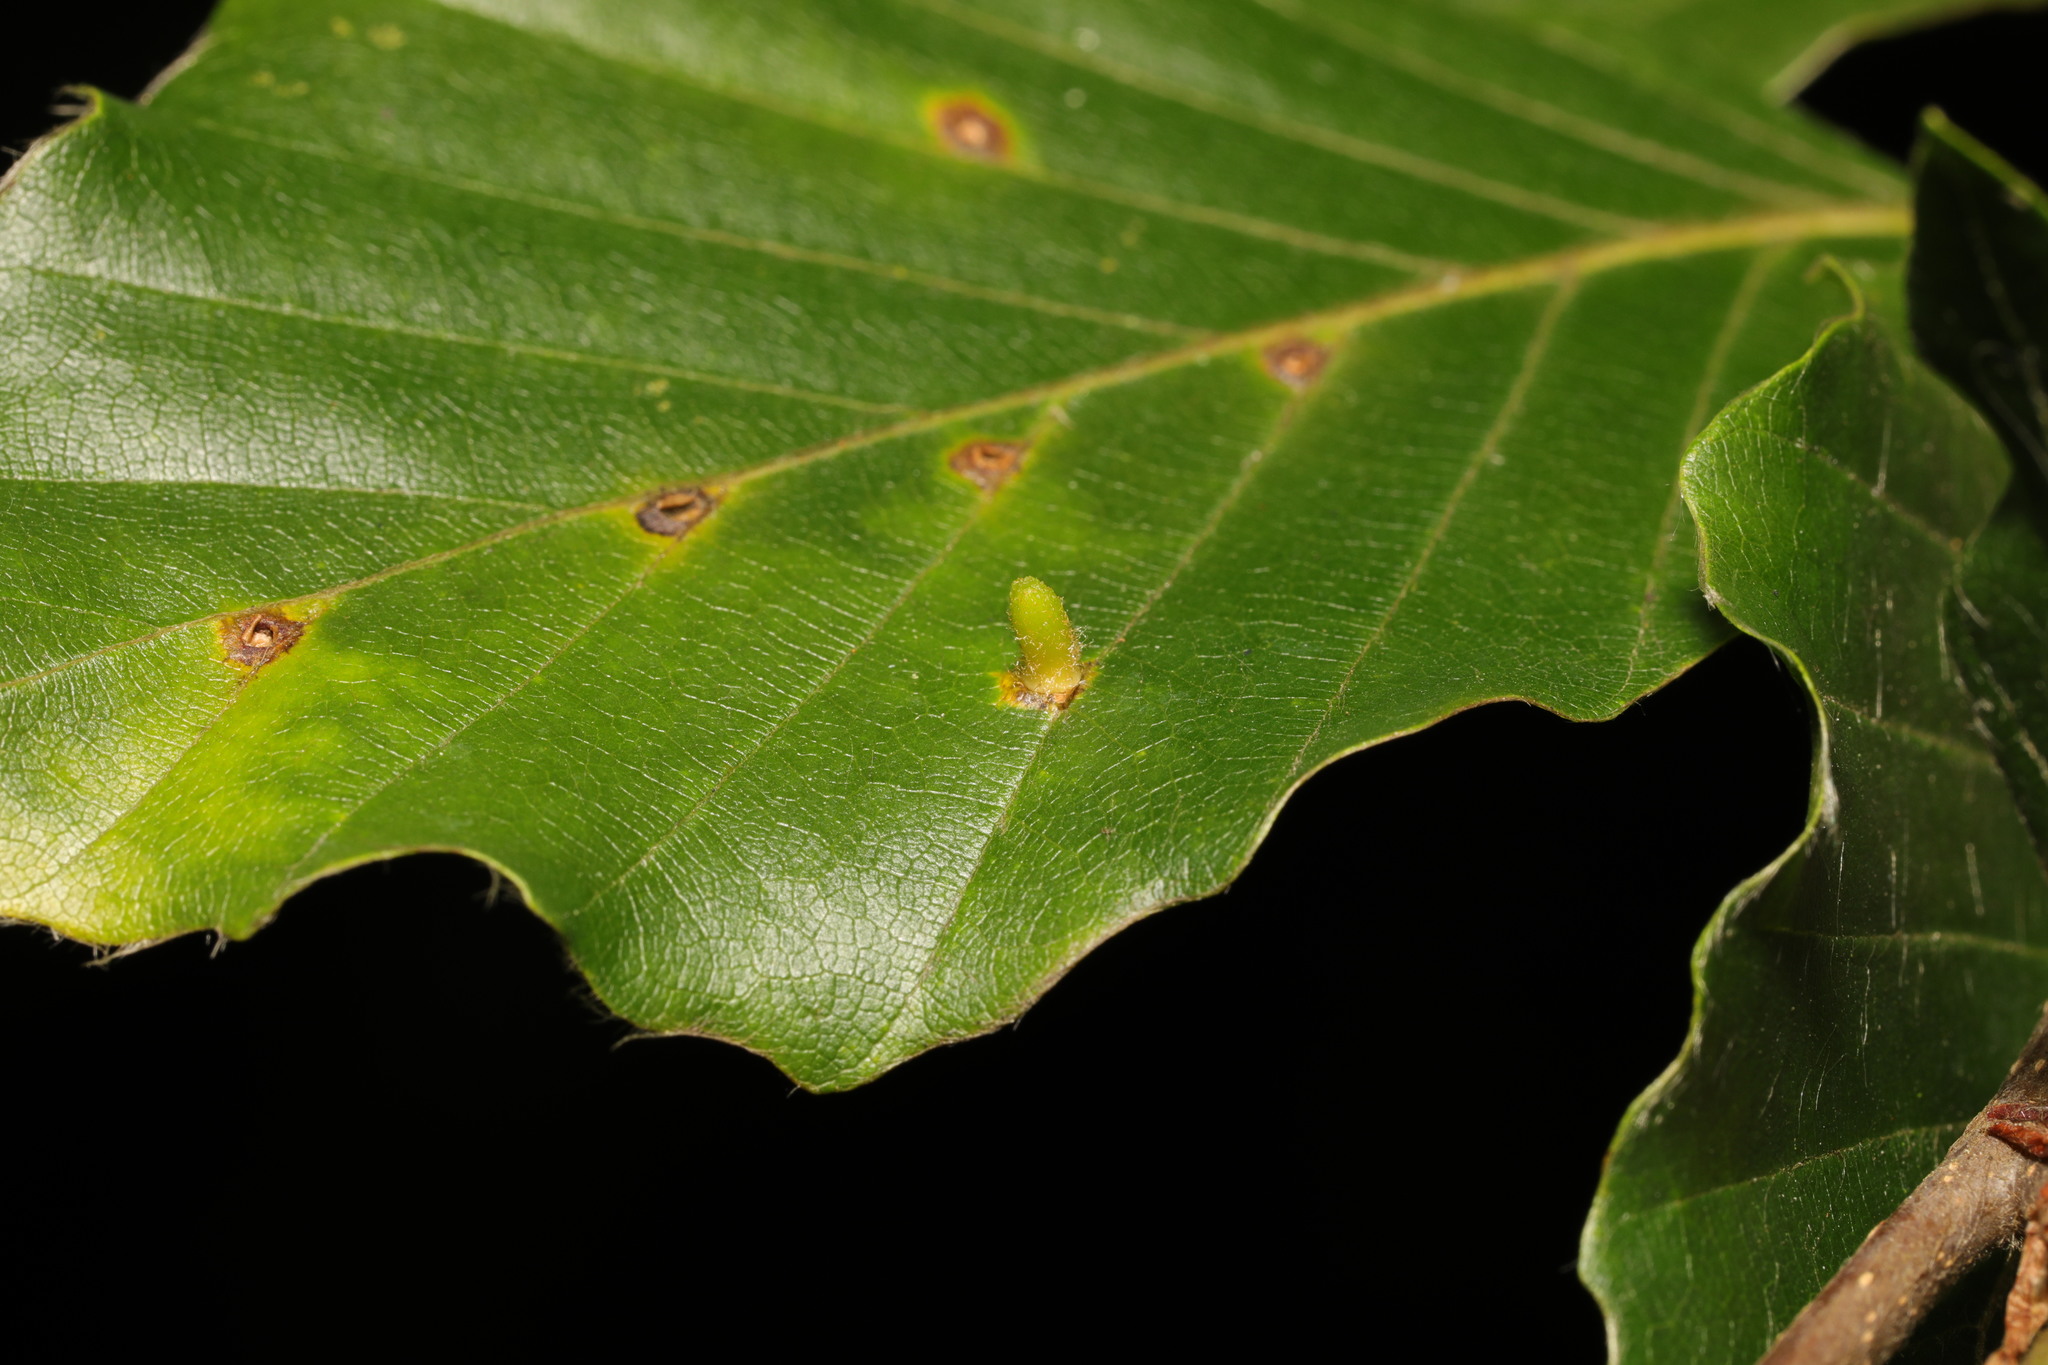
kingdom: Animalia
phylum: Arthropoda
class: Insecta
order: Diptera
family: Cecidomyiidae
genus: Hartigiola
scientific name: Hartigiola annulipes
